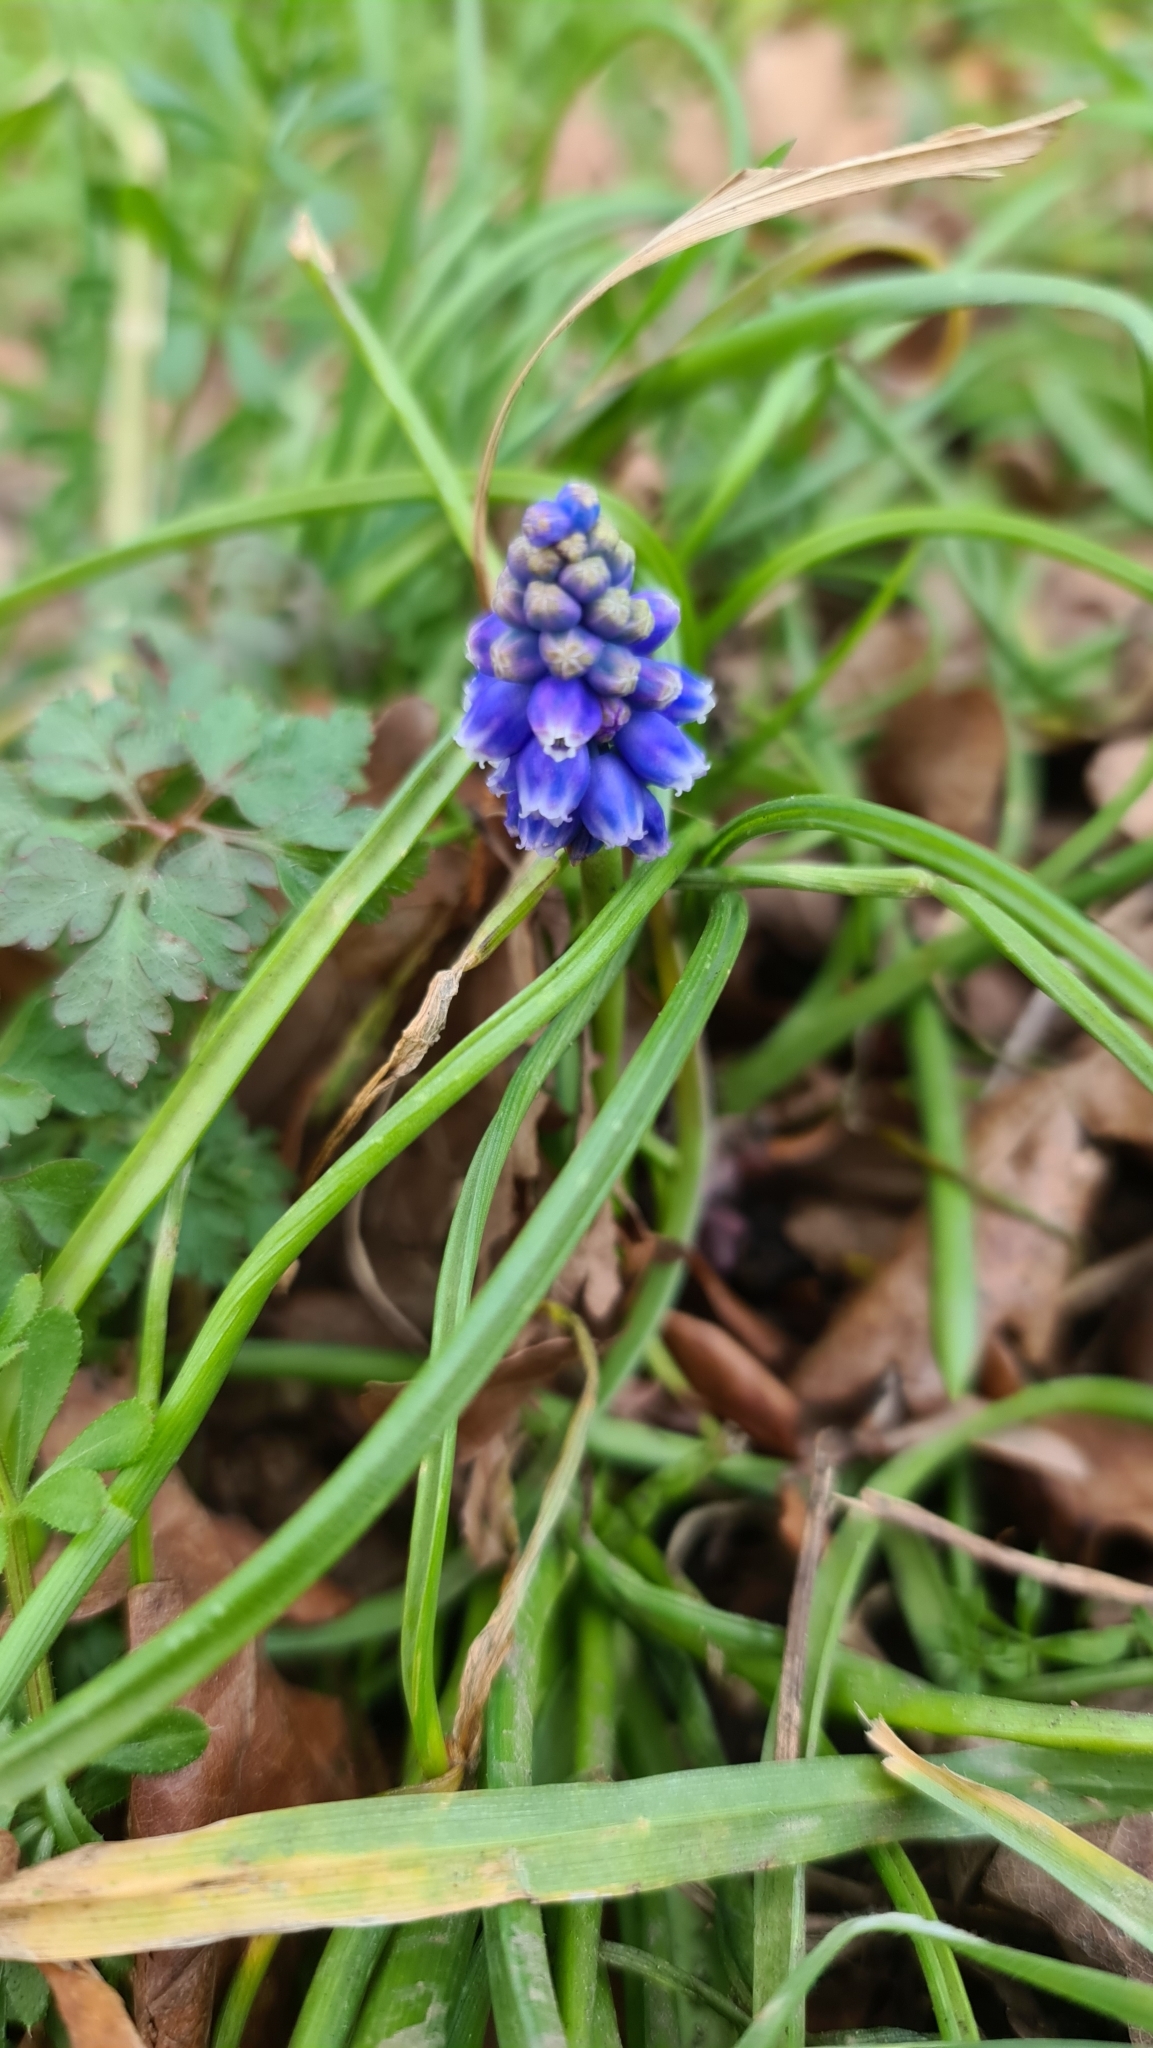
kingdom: Plantae
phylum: Tracheophyta
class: Liliopsida
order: Asparagales
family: Asparagaceae
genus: Muscari
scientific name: Muscari armeniacum
